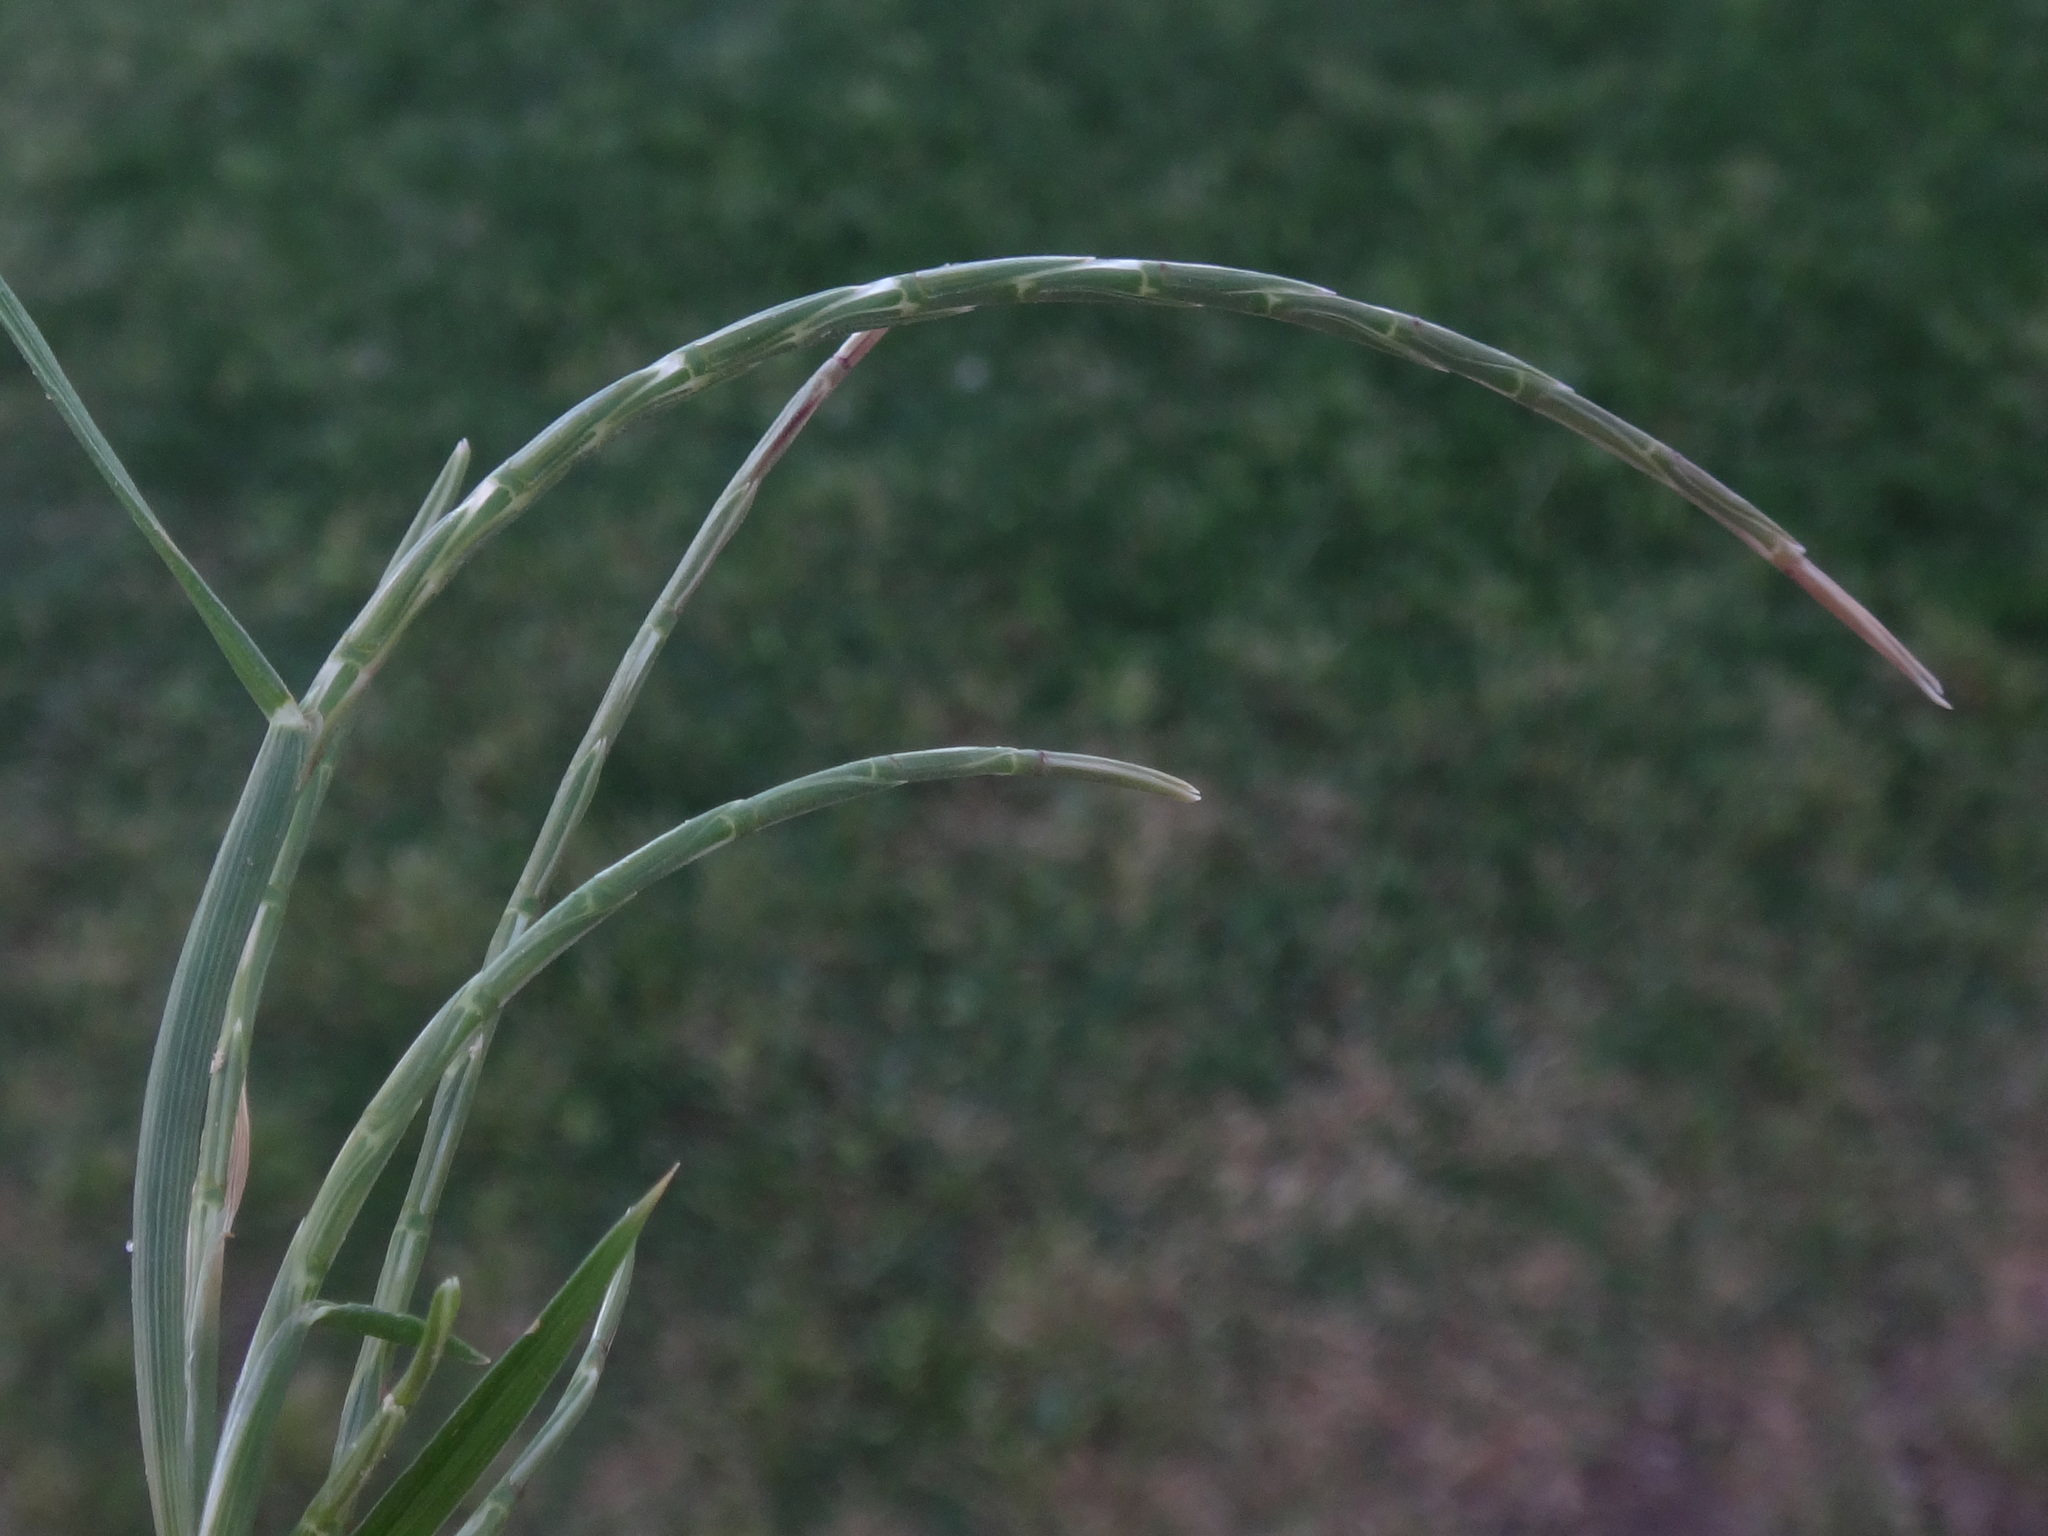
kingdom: Plantae
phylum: Tracheophyta
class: Liliopsida
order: Poales
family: Poaceae
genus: Parapholis
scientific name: Parapholis incurva
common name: Curved sicklegrass
